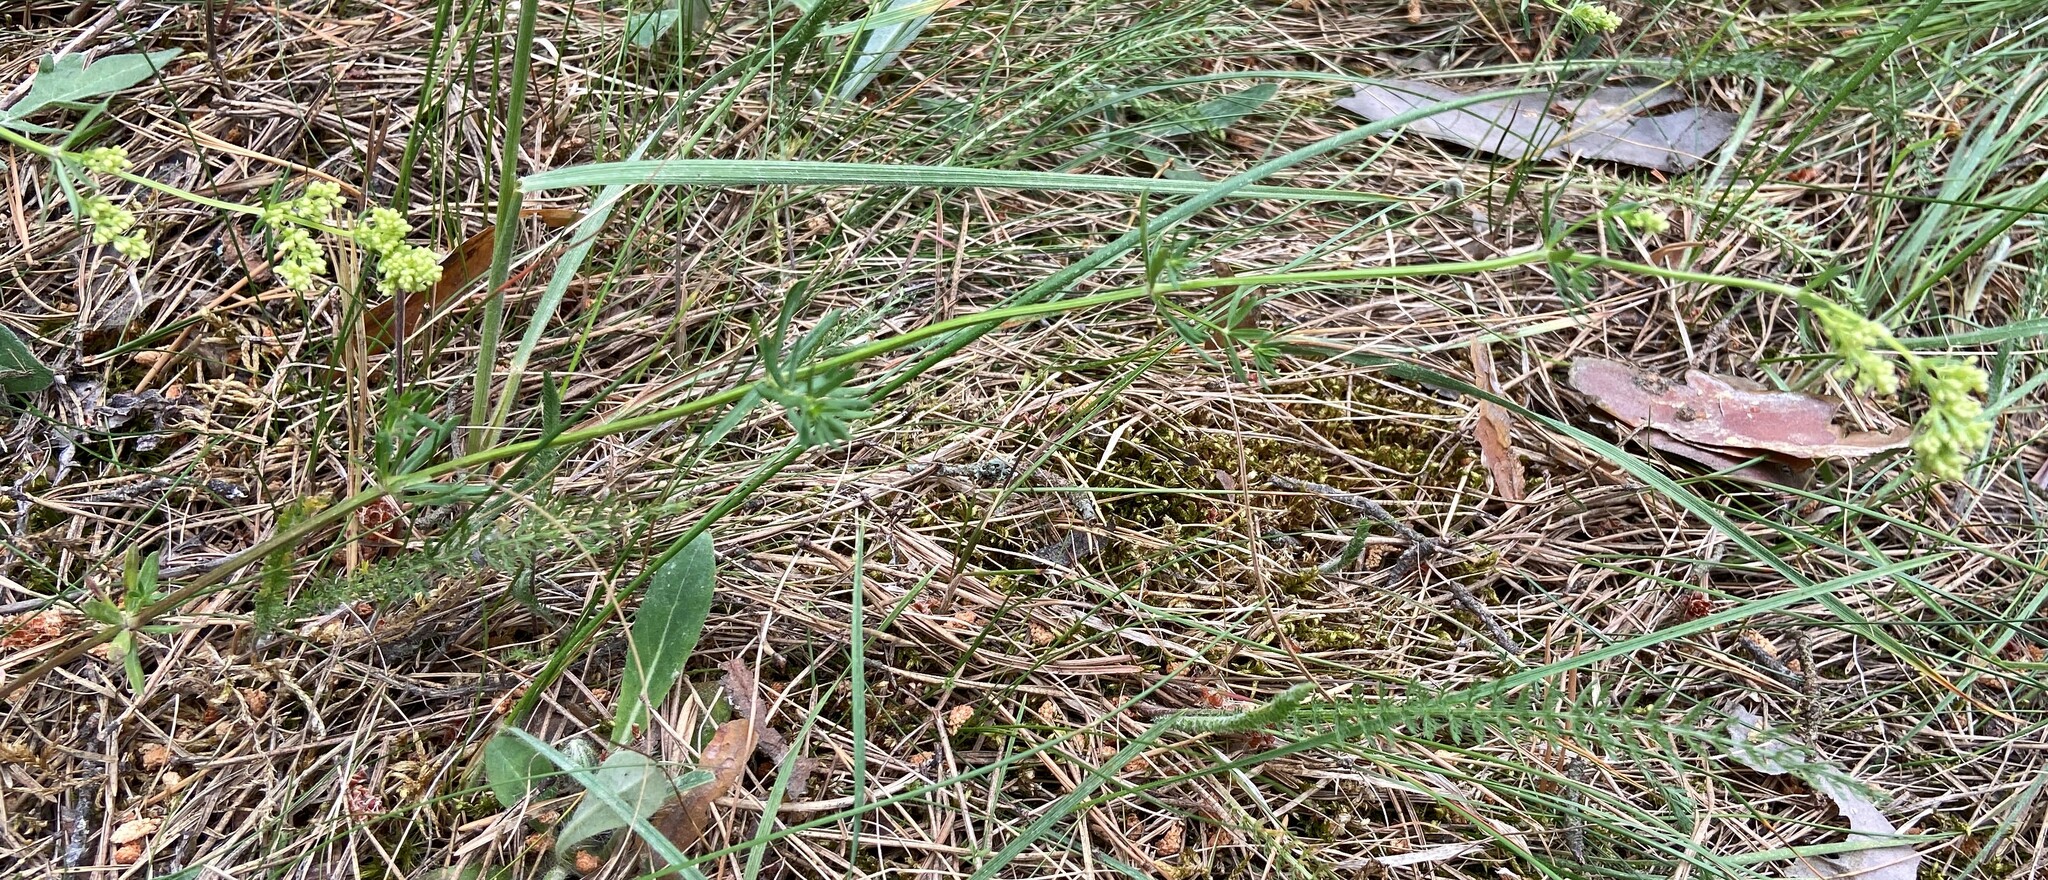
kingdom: Plantae
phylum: Tracheophyta
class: Magnoliopsida
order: Gentianales
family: Rubiaceae
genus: Galium
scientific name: Galium verum
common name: Lady's bedstraw
